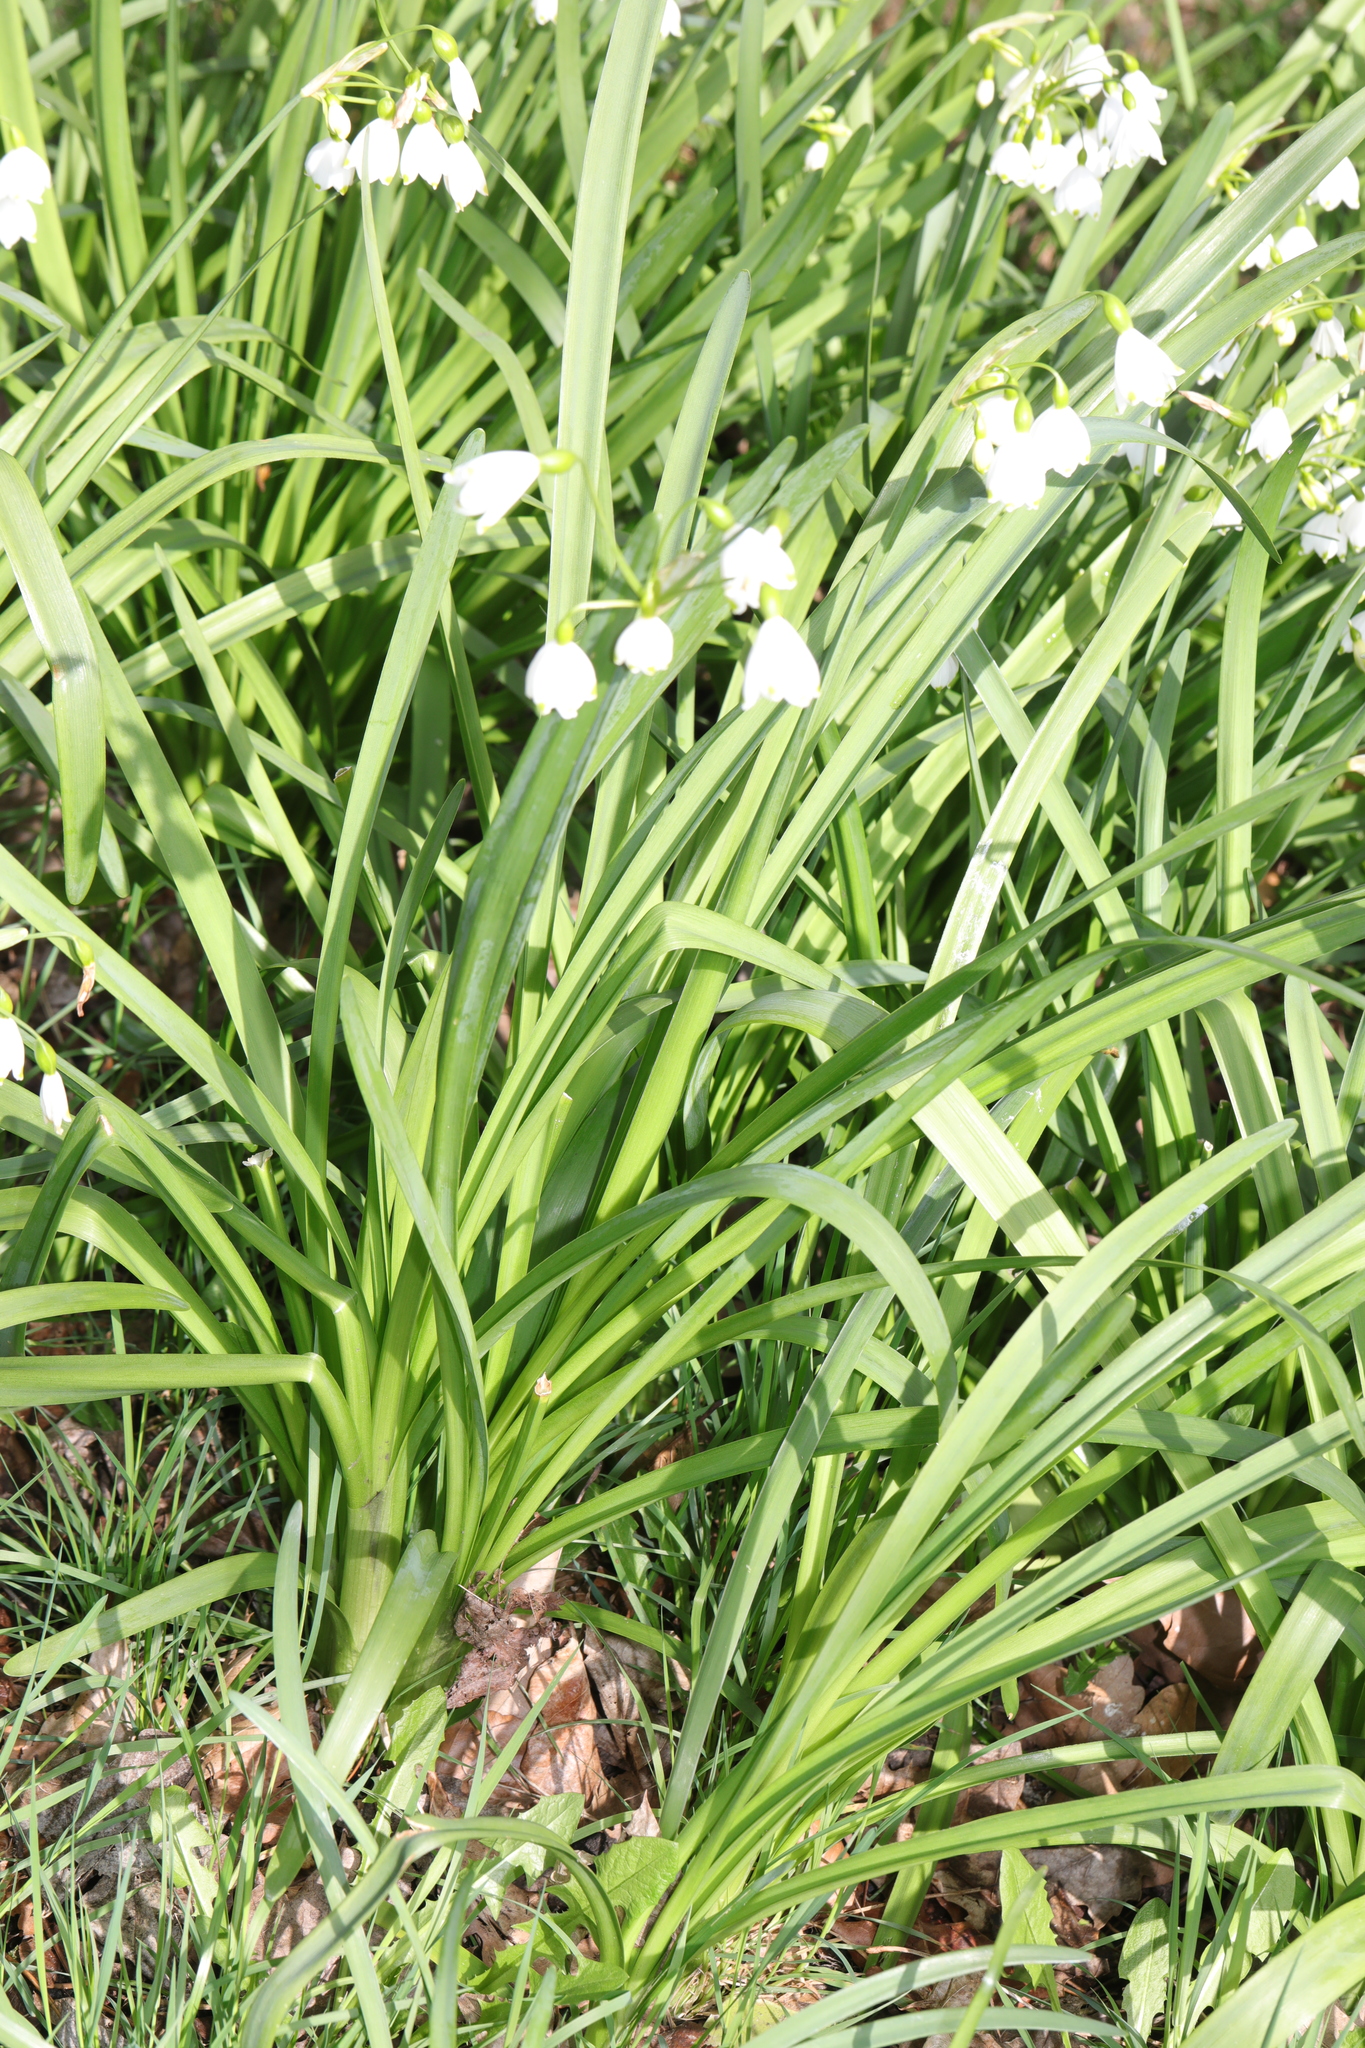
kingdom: Plantae
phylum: Tracheophyta
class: Liliopsida
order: Asparagales
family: Amaryllidaceae
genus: Leucojum
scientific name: Leucojum aestivum
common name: Summer snowflake
